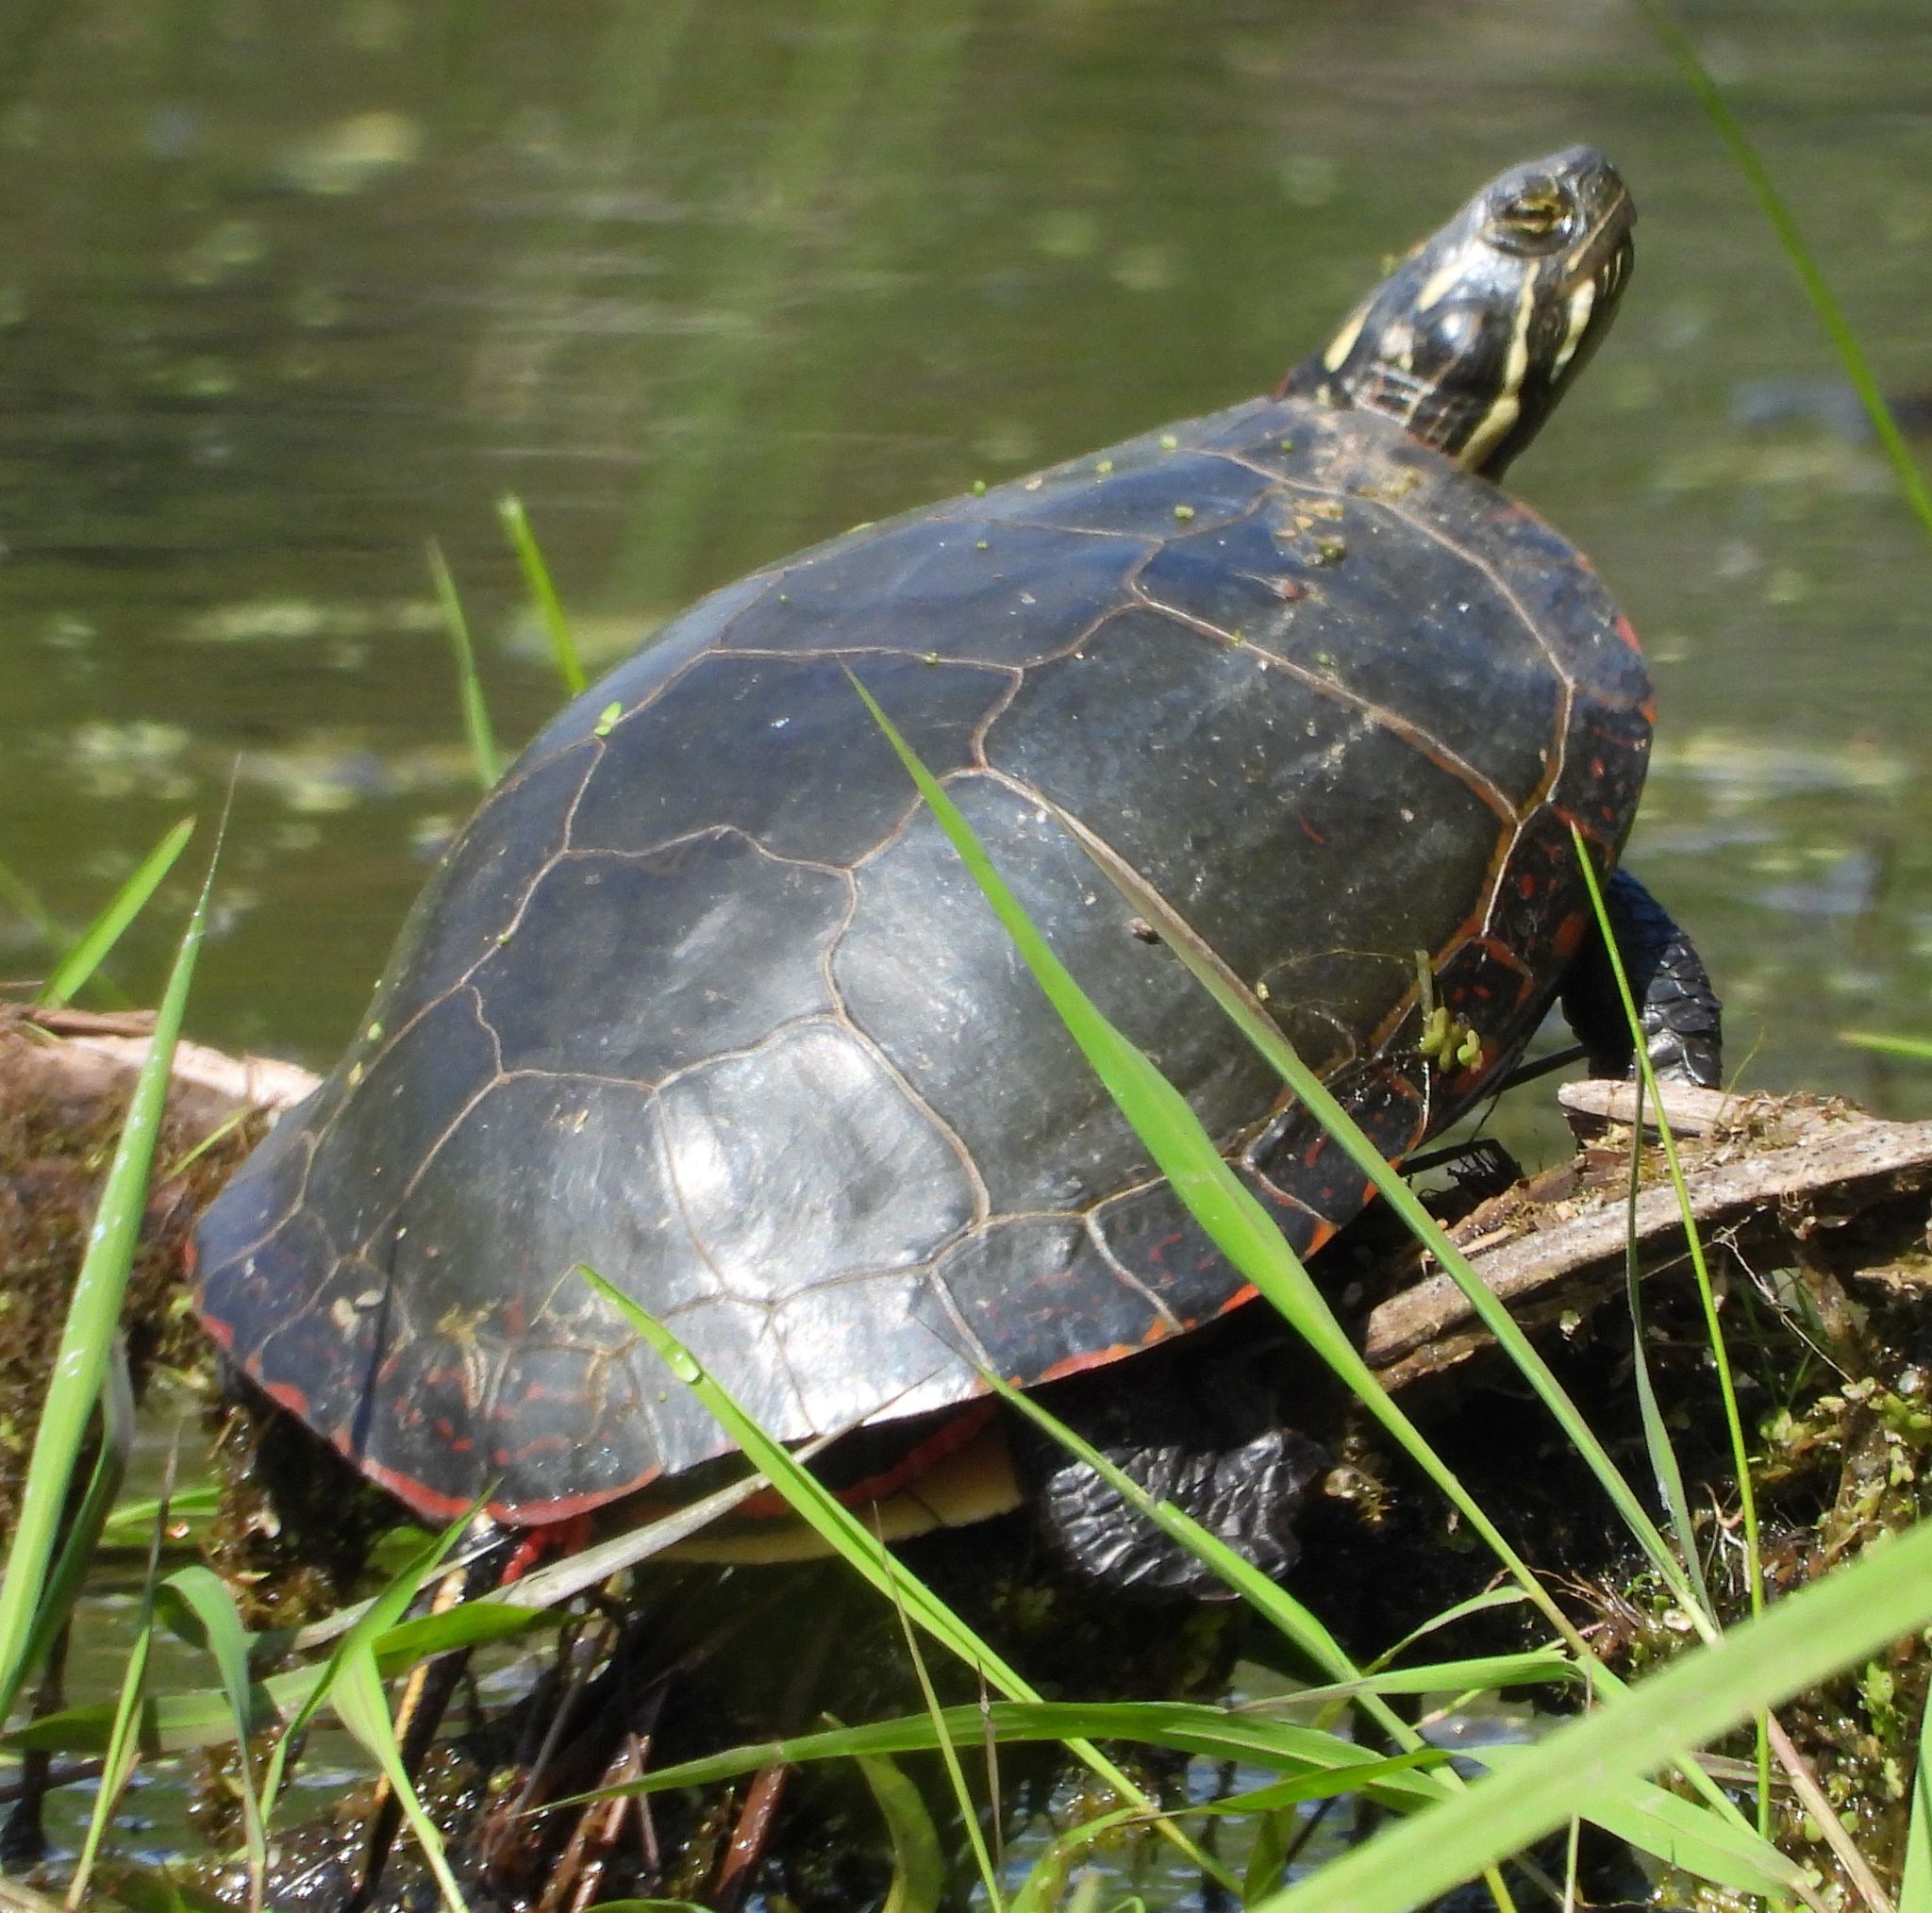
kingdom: Animalia
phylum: Chordata
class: Testudines
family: Emydidae
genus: Chrysemys
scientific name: Chrysemys picta
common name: Painted turtle
